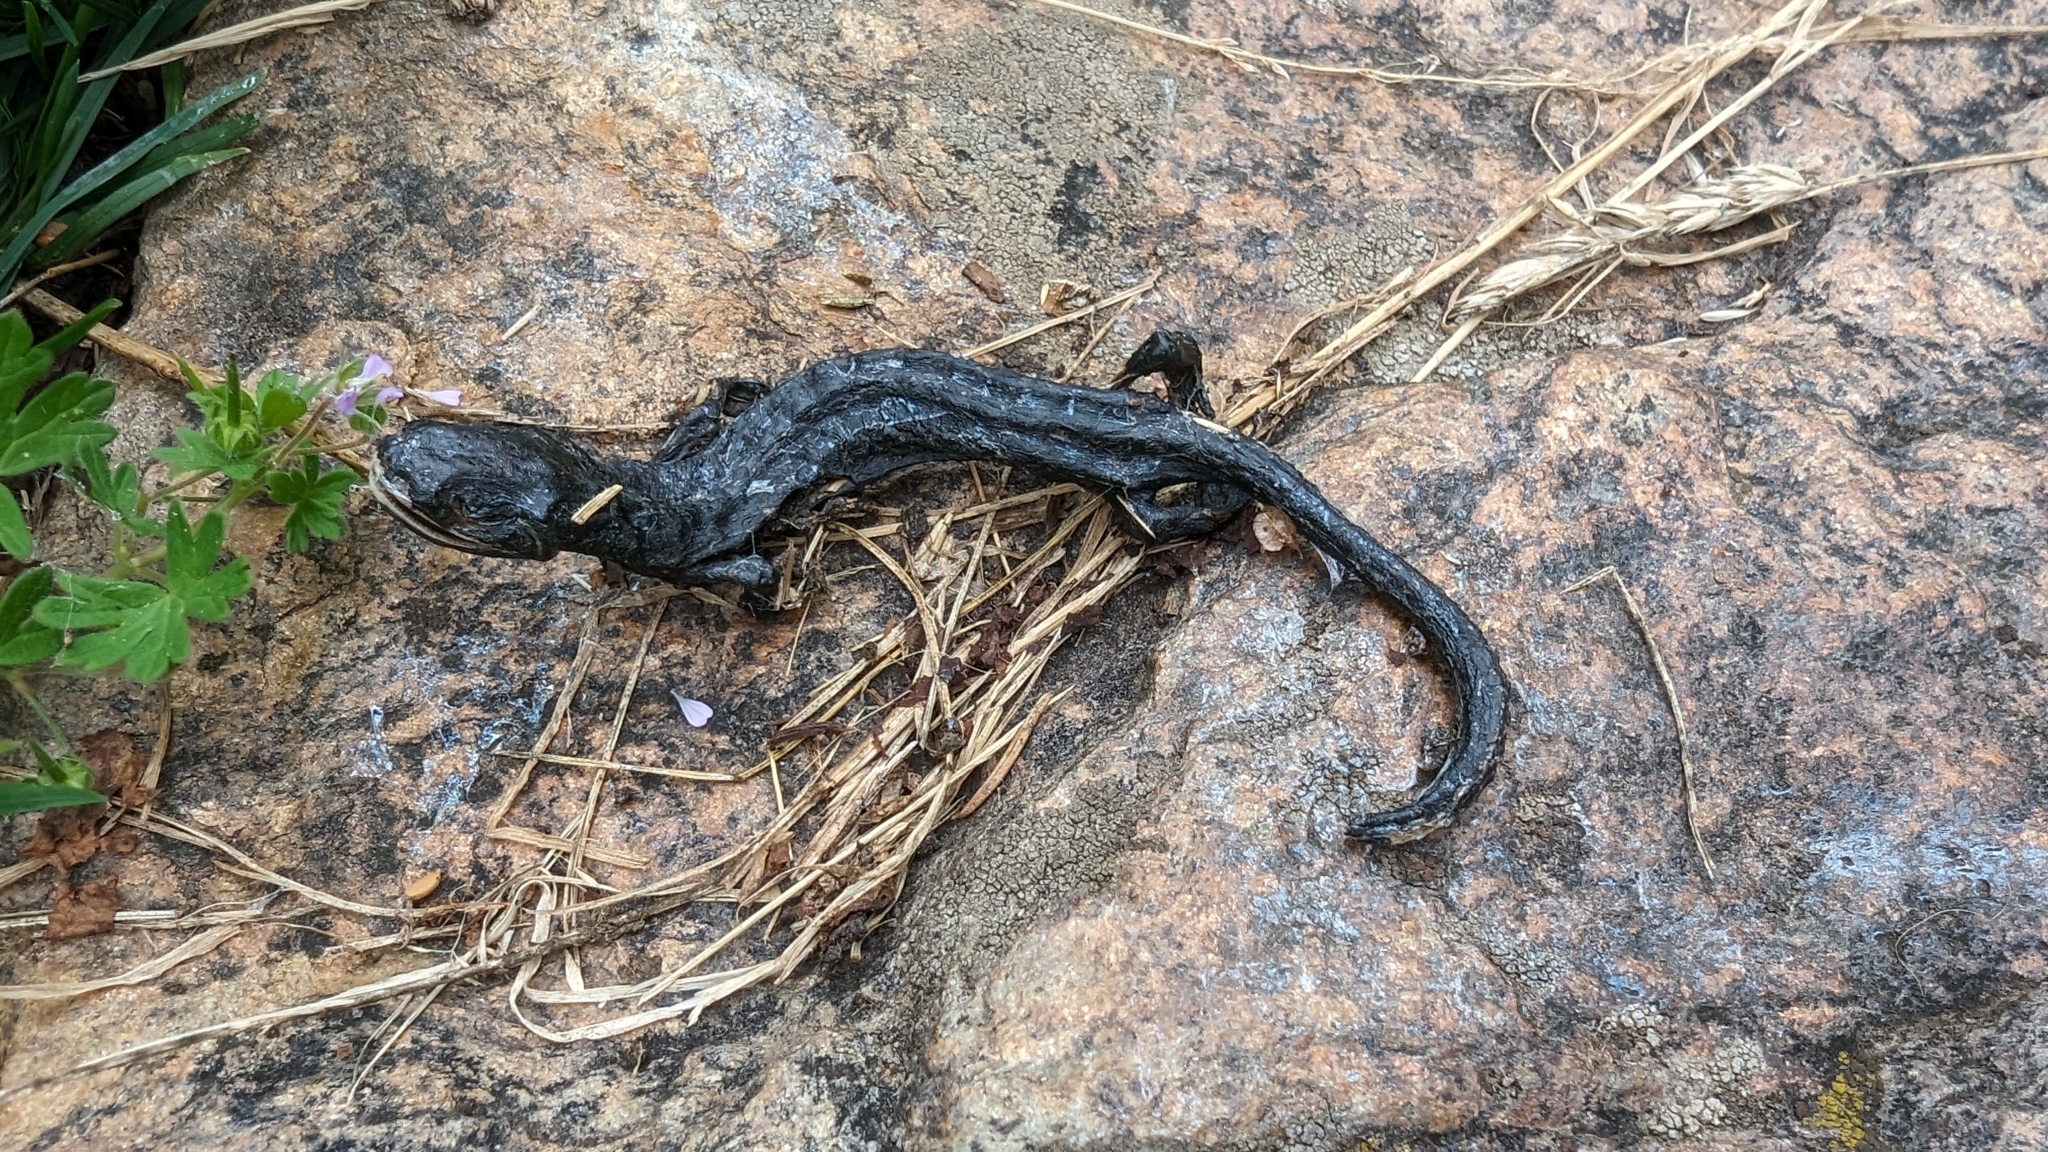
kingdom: Animalia
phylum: Chordata
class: Amphibia
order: Caudata
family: Salamandridae
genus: Salamandra
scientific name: Salamandra atra
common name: Alpine salamander
